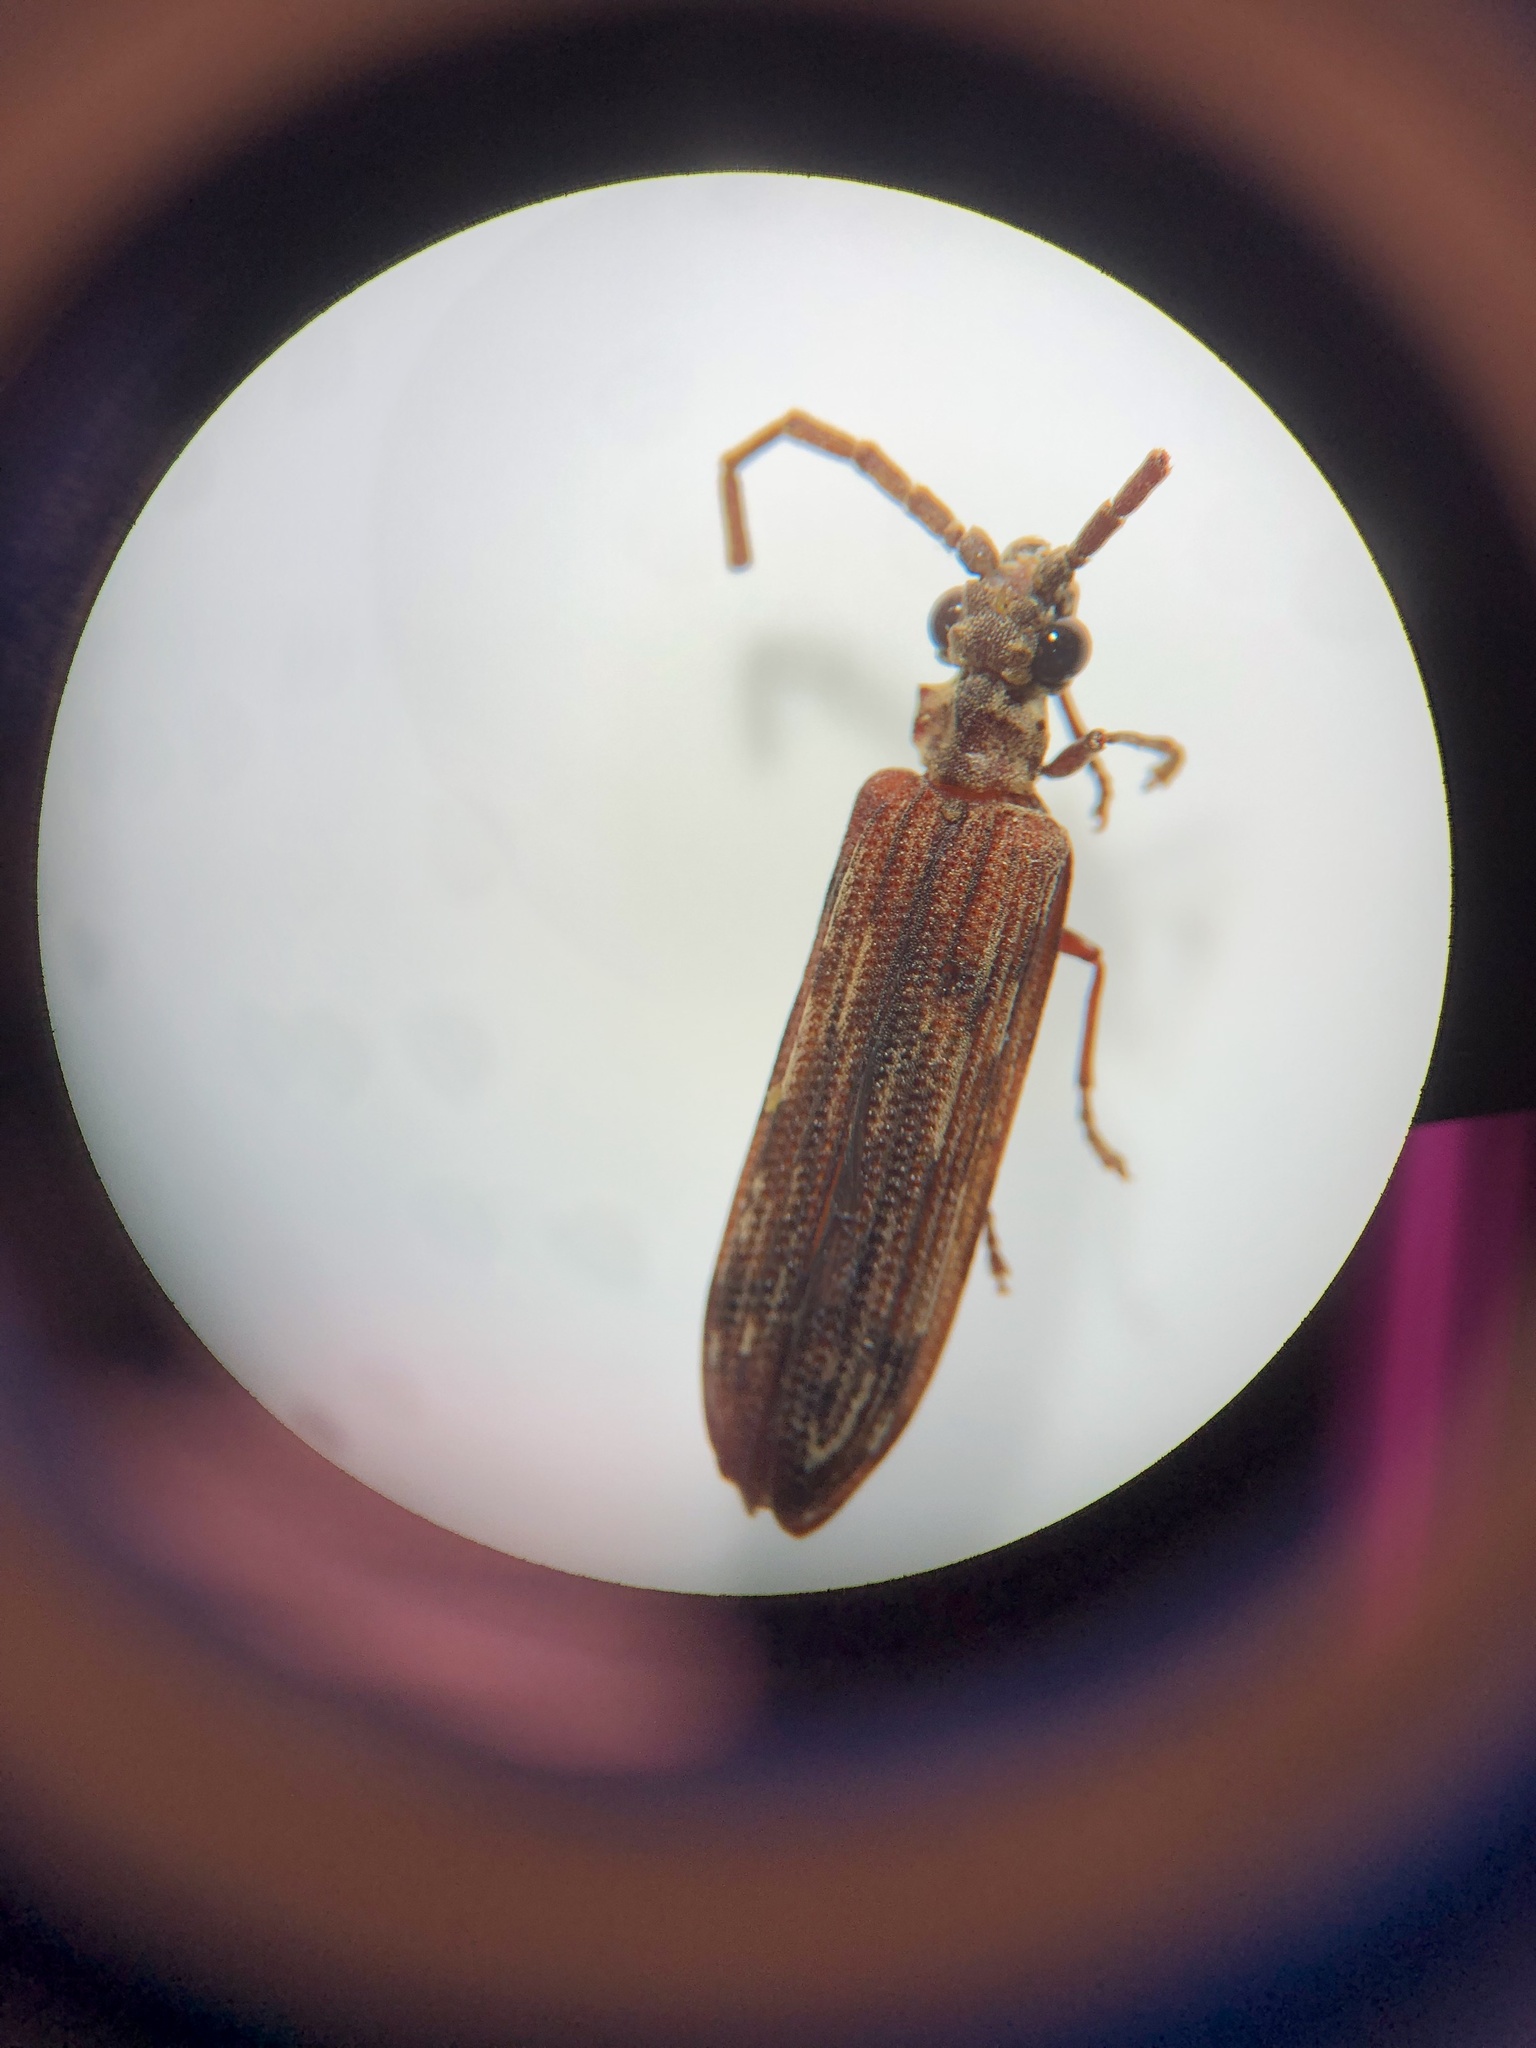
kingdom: Animalia
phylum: Arthropoda
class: Insecta
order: Coleoptera
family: Cupedidae
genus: Tenomerga
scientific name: Tenomerga cinerea
